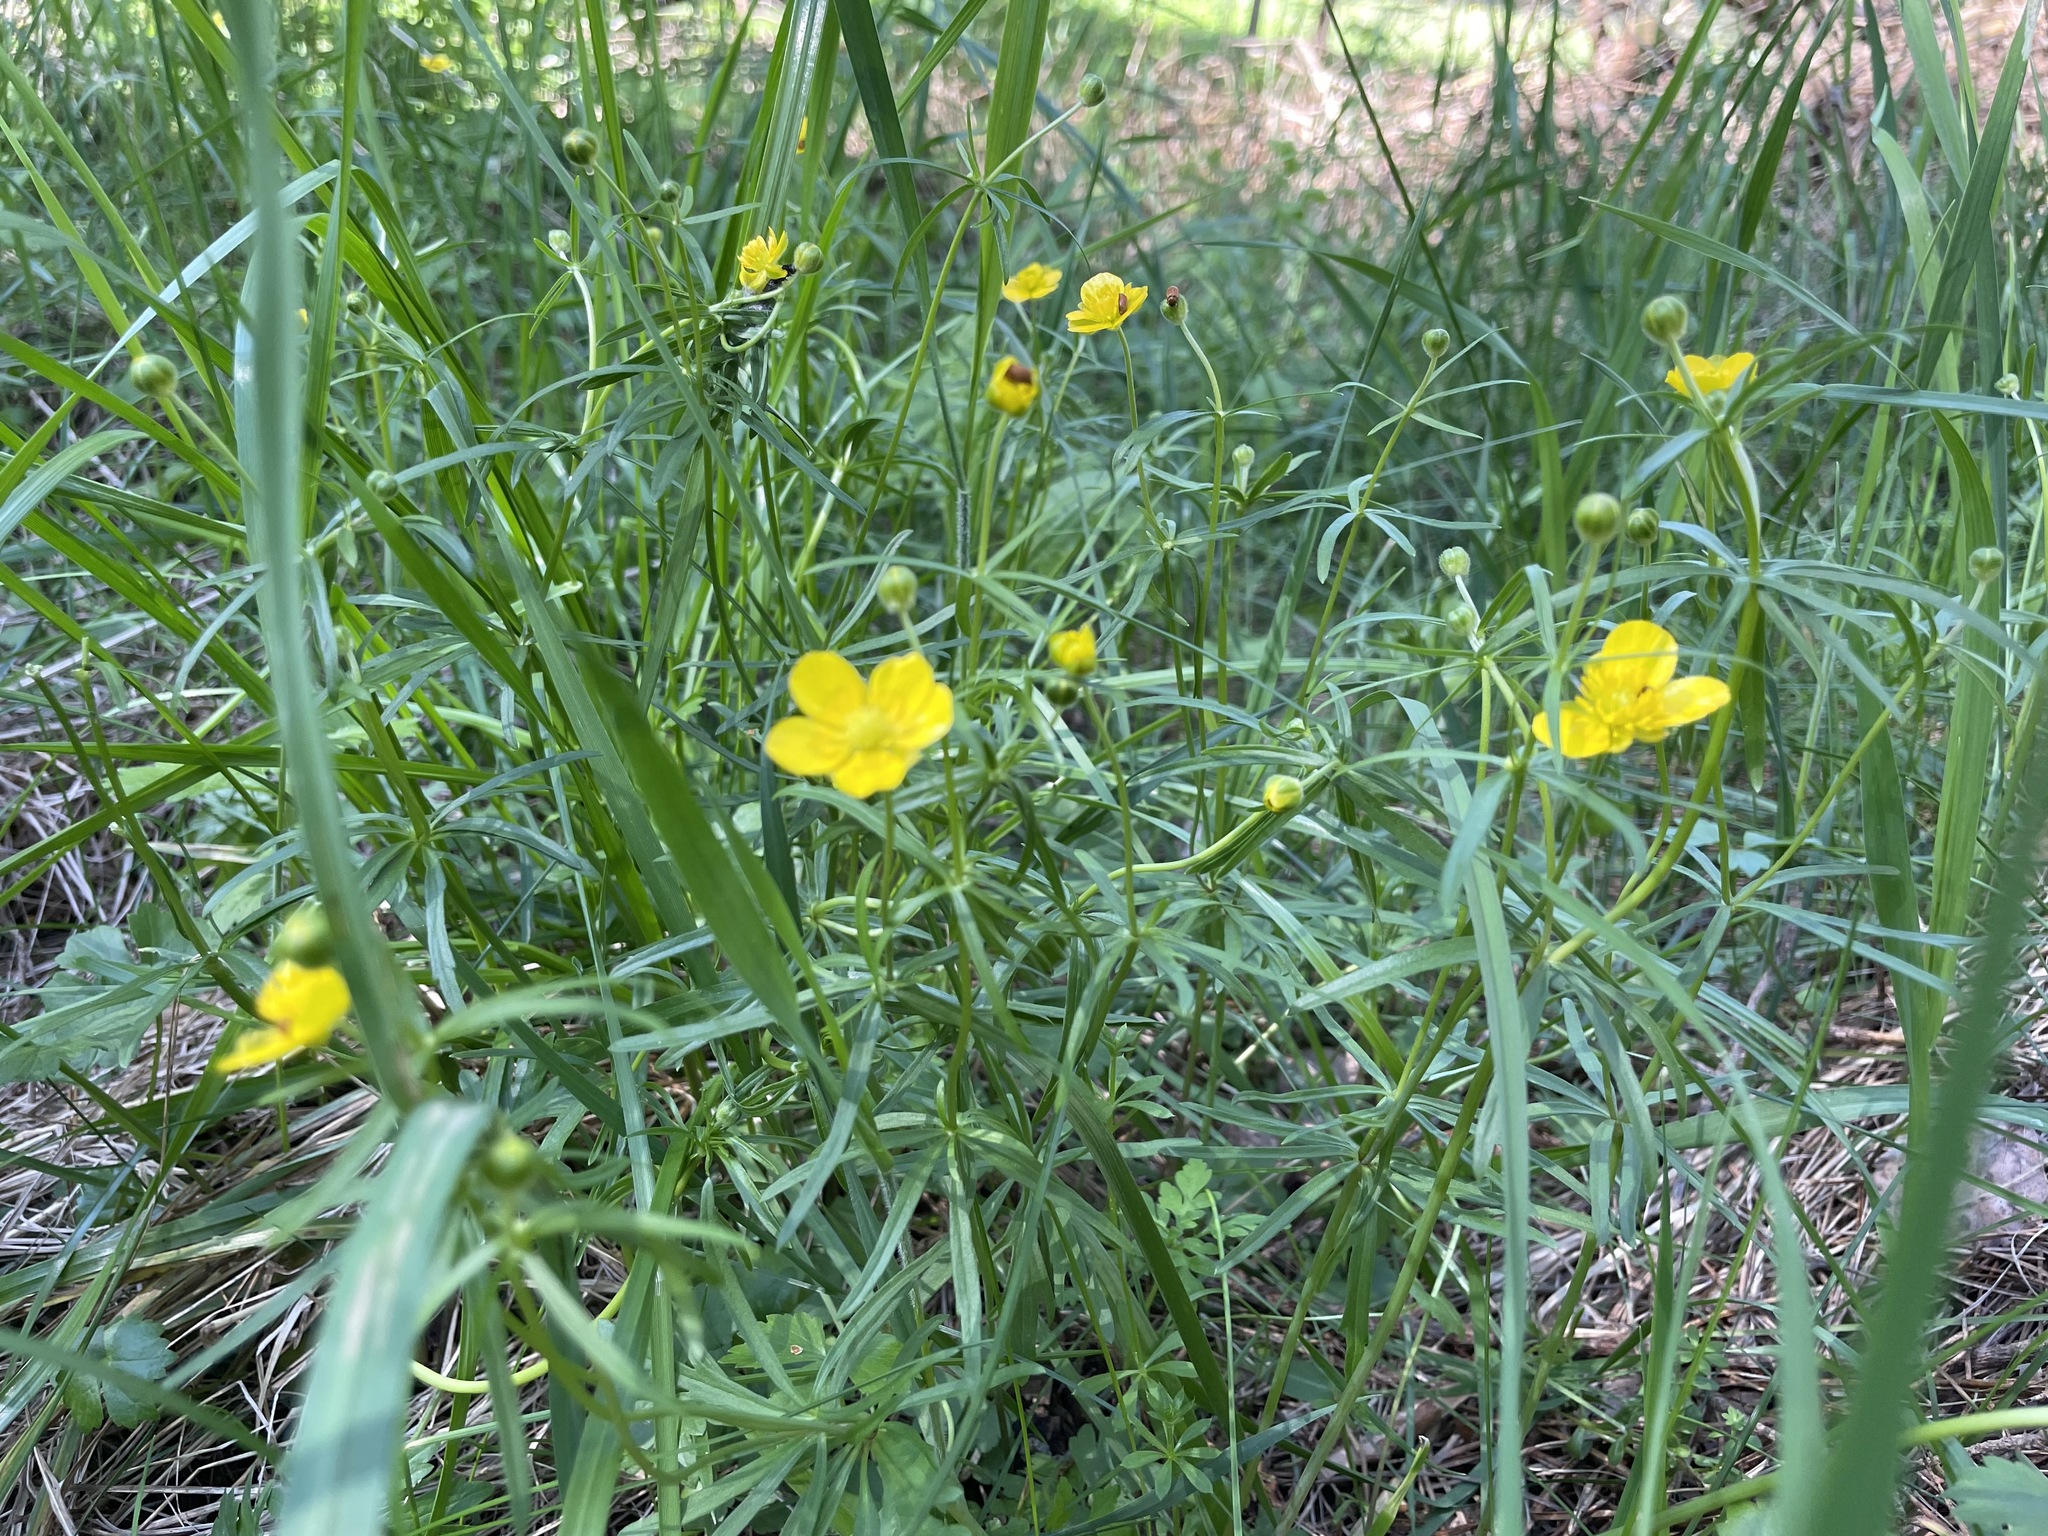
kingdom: Plantae
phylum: Tracheophyta
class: Magnoliopsida
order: Ranunculales
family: Ranunculaceae
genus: Ranunculus
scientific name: Ranunculus auricomus
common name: Goldilocks buttercup
